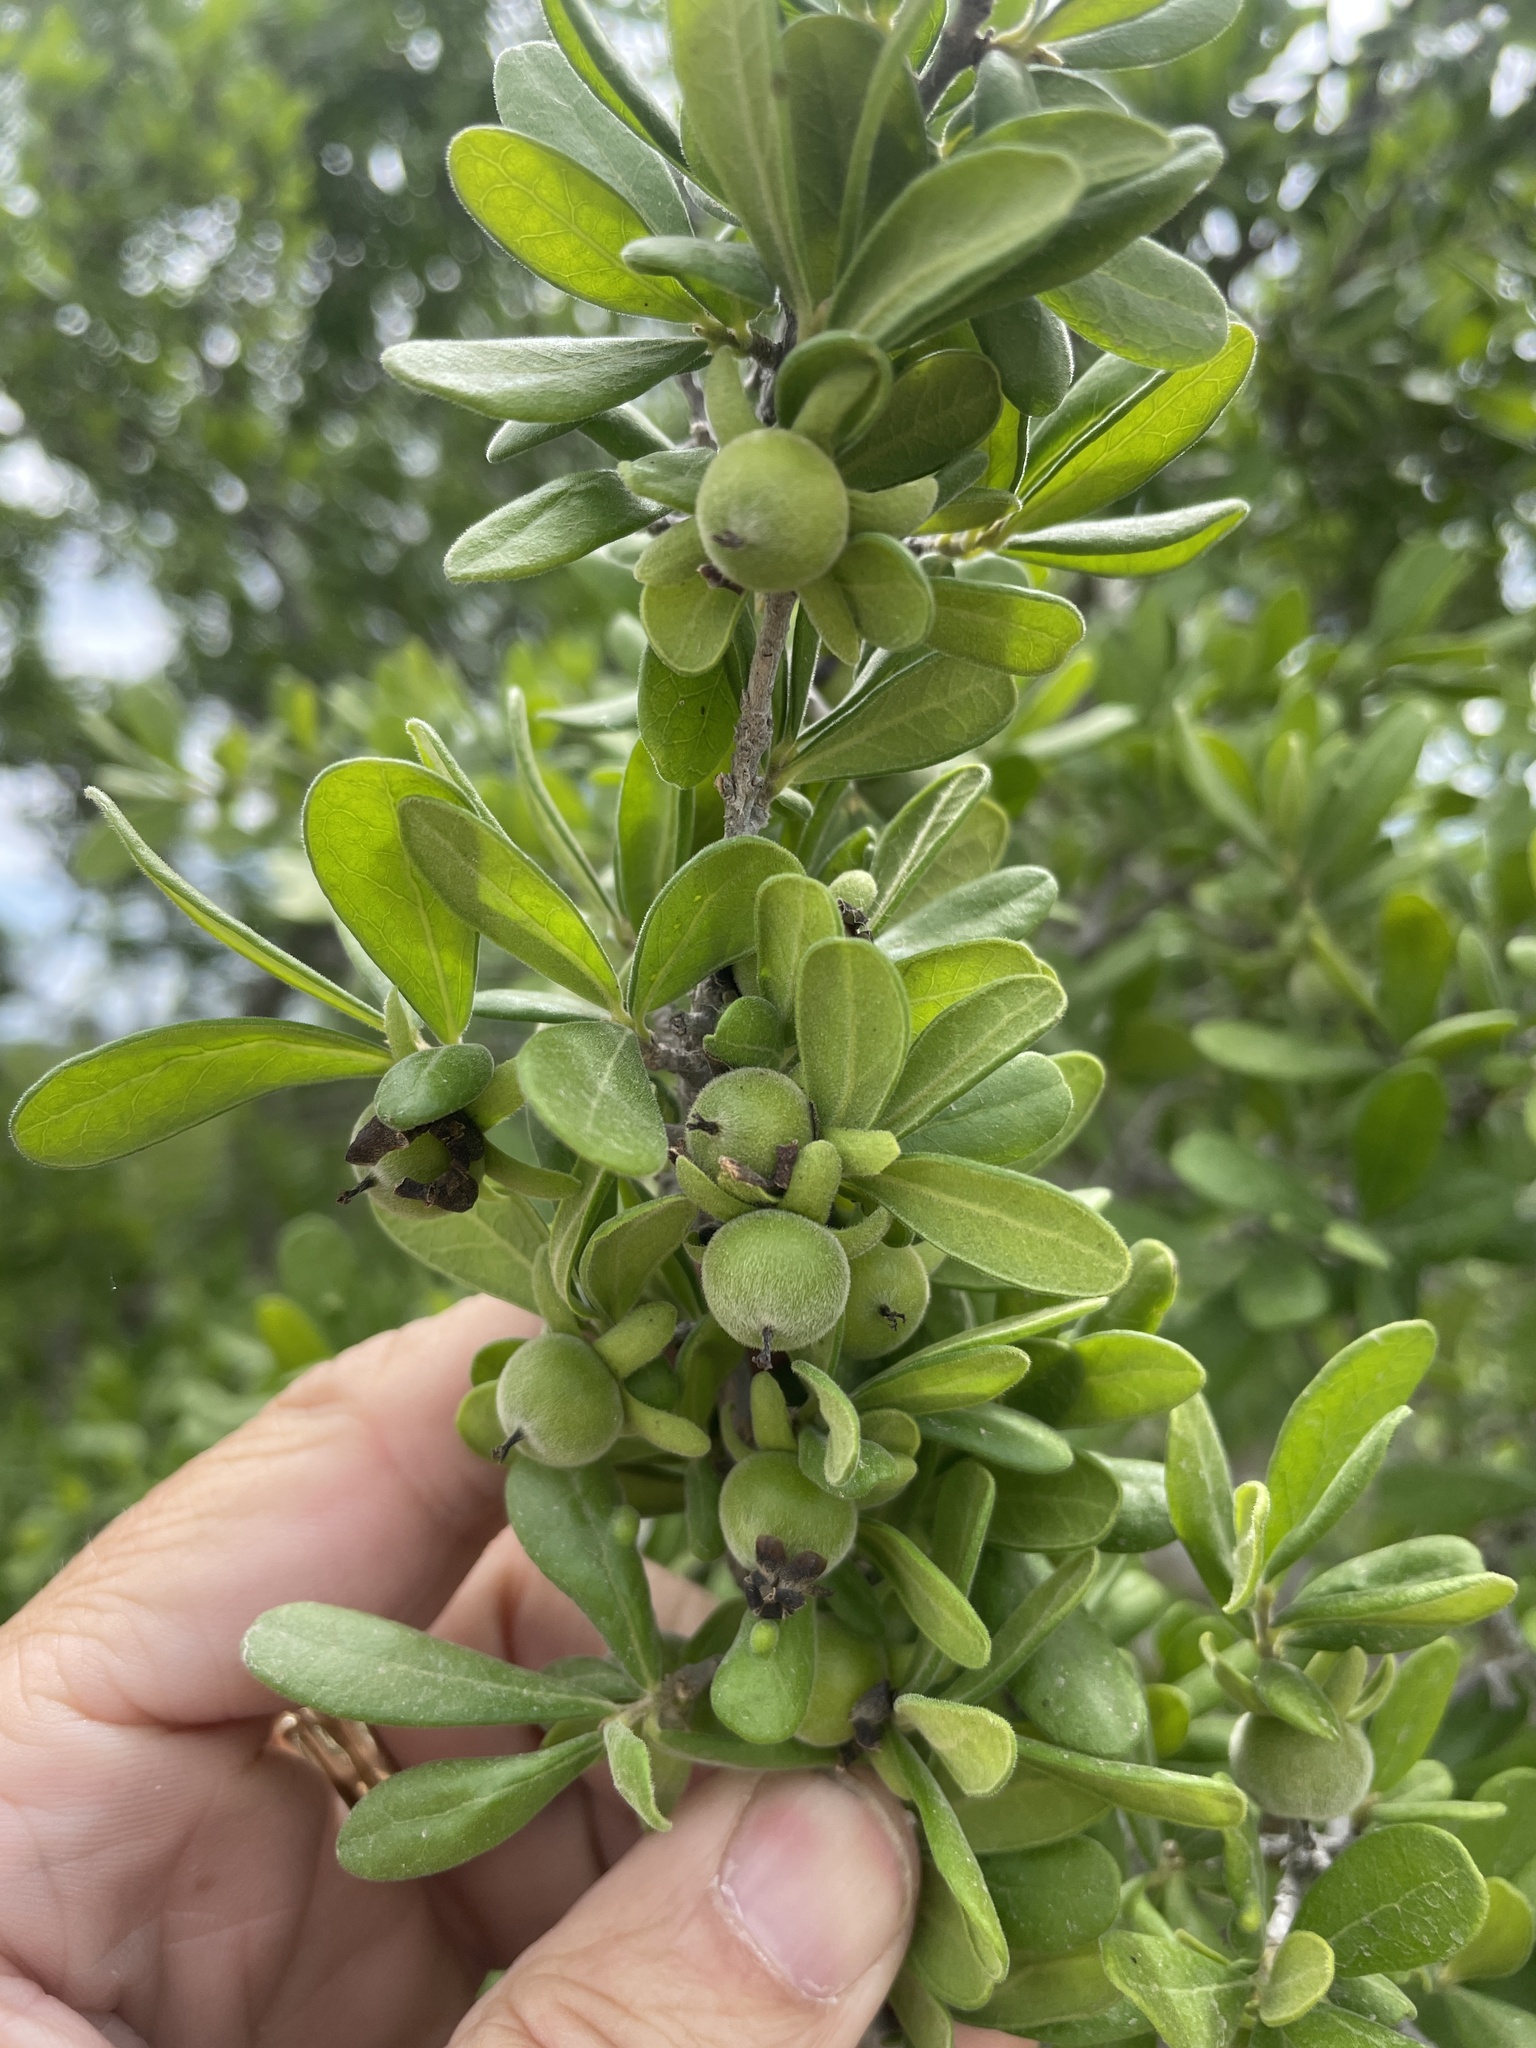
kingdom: Plantae
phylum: Tracheophyta
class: Magnoliopsida
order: Ericales
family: Ebenaceae
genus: Diospyros
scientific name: Diospyros texana
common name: Texas persimmon
